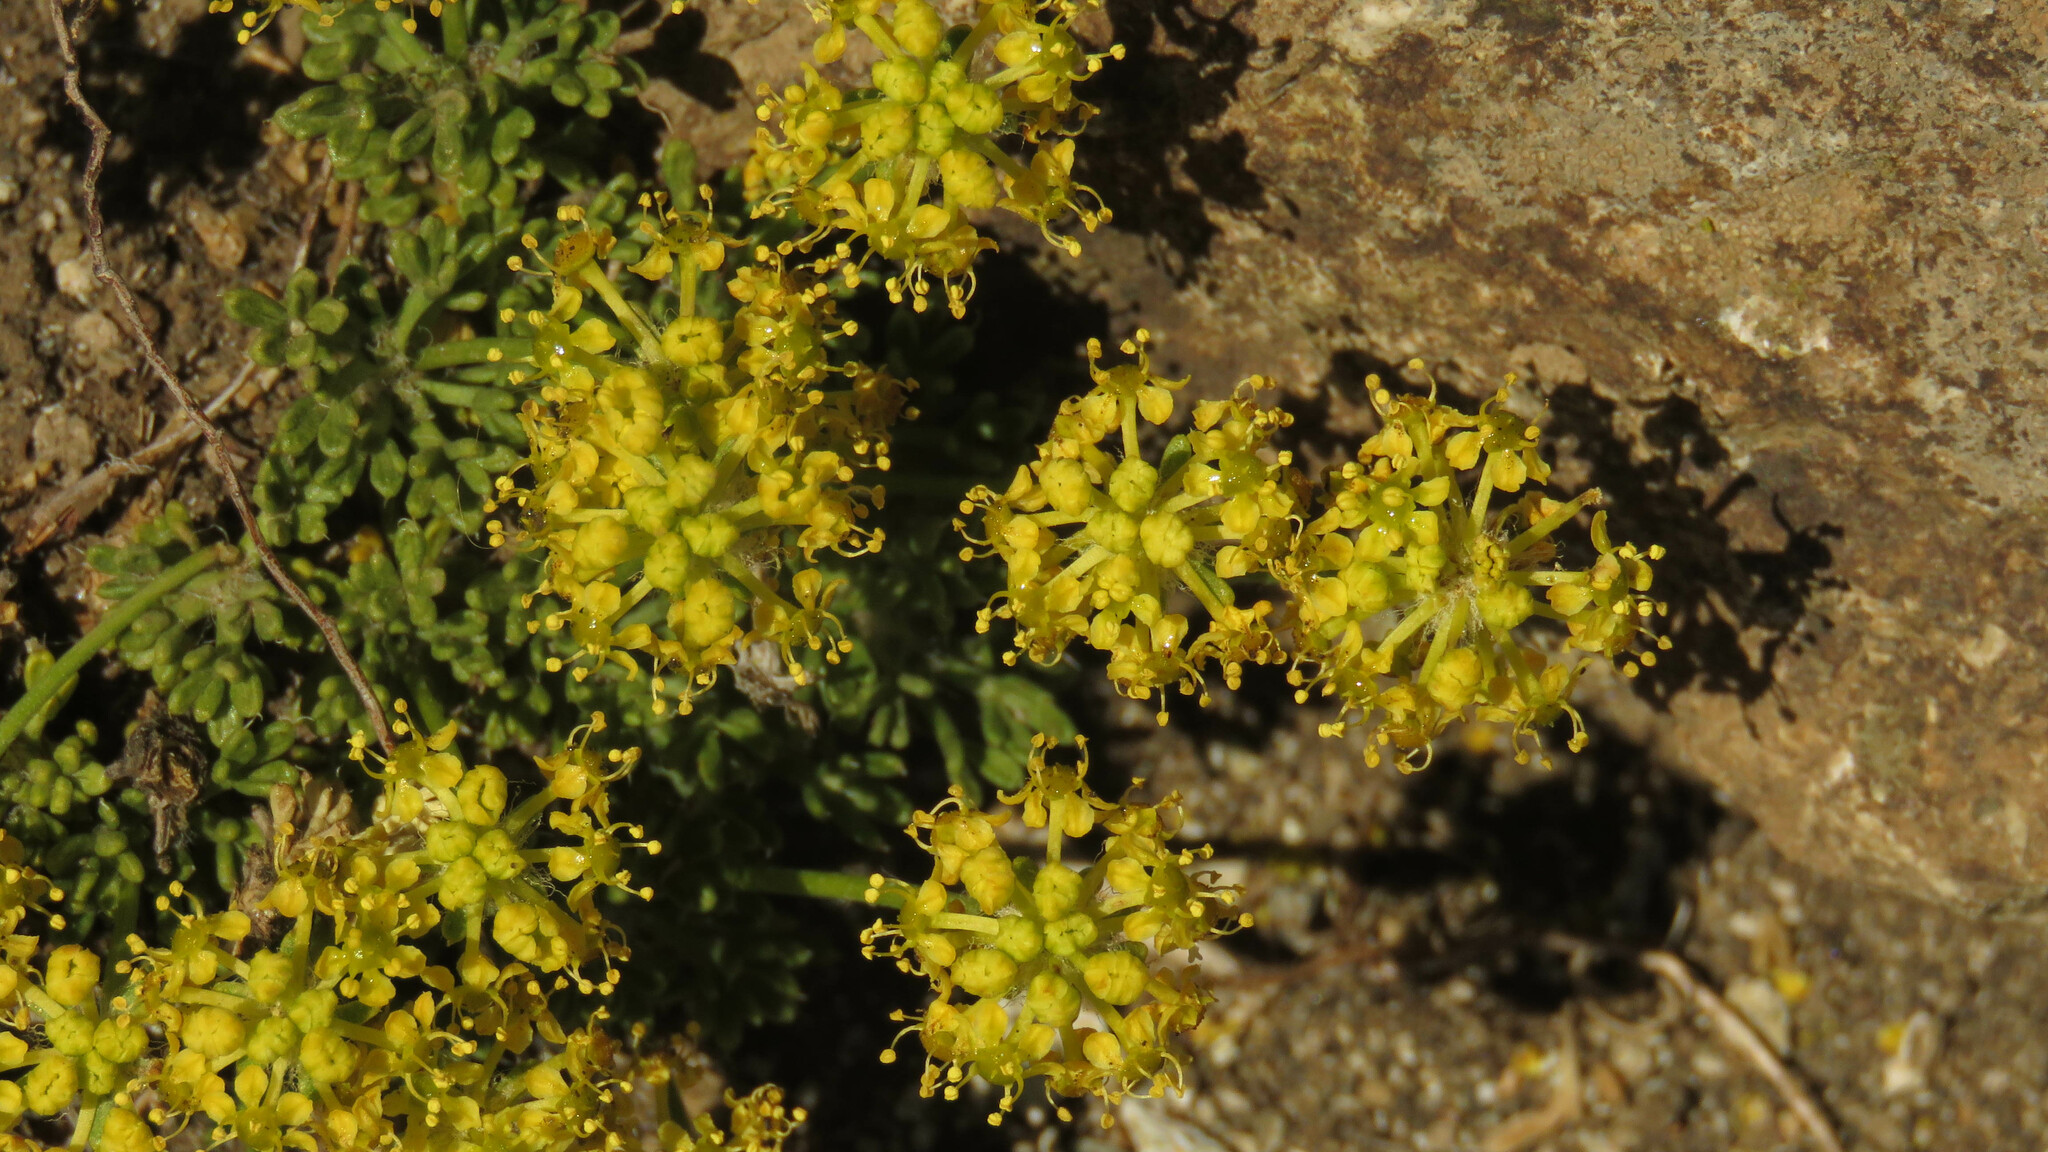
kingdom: Plantae
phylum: Tracheophyta
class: Magnoliopsida
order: Apiales
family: Apiaceae
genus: Azorella
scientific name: Azorella microphylla
